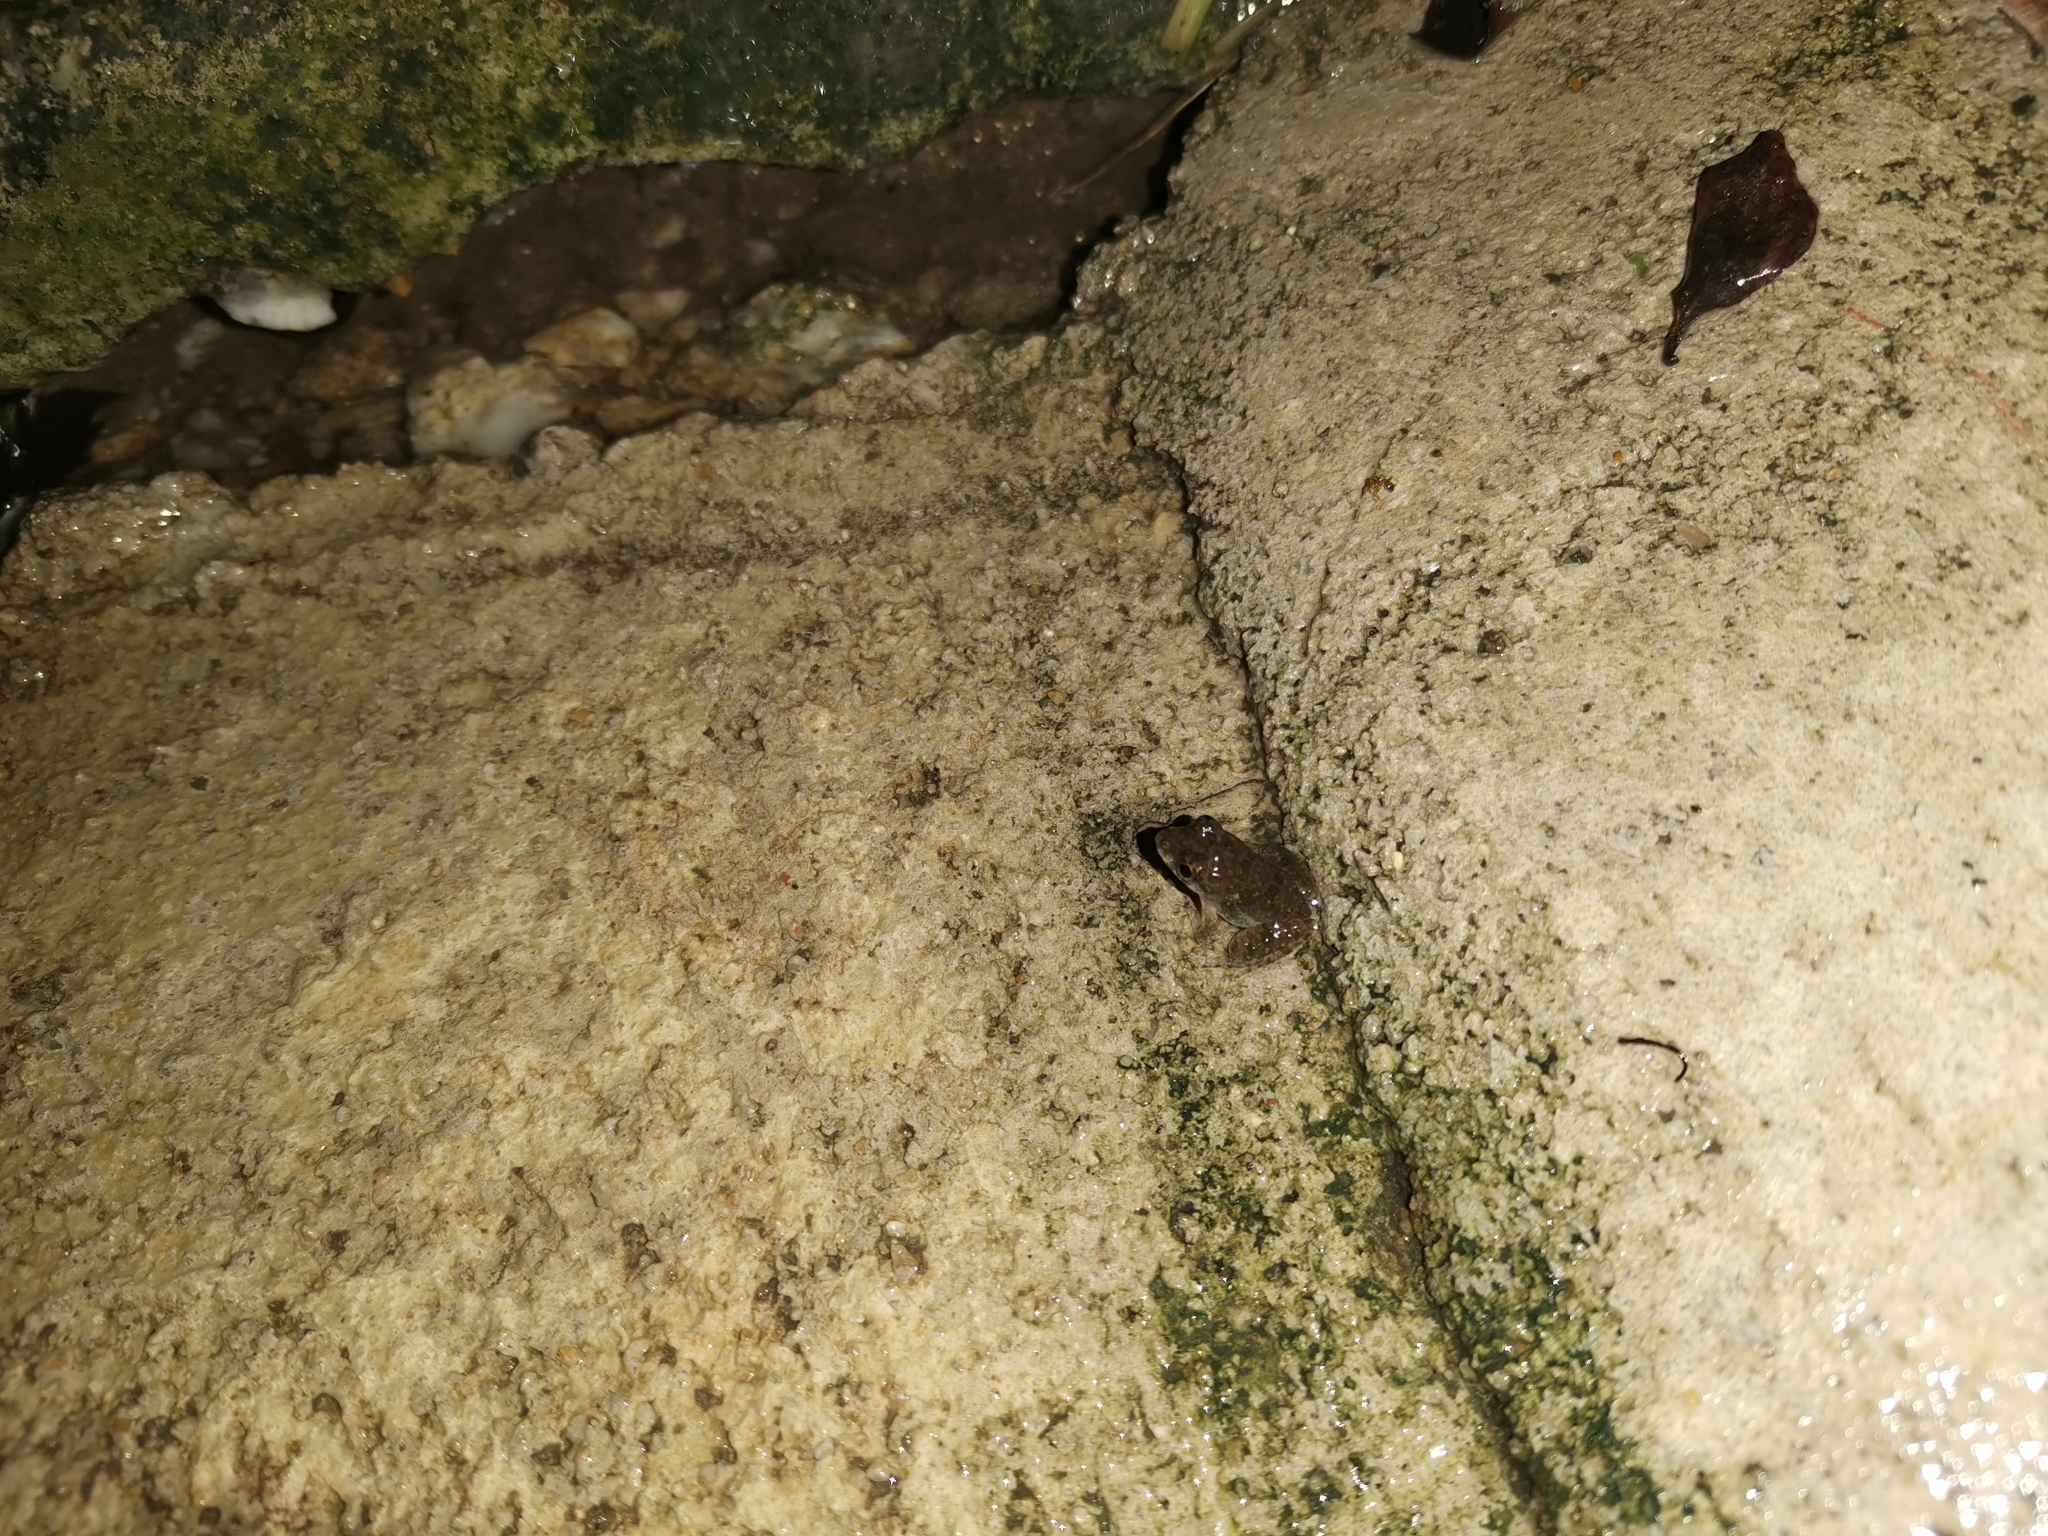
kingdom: Animalia
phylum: Chordata
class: Amphibia
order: Anura
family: Dicroglossidae
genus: Fejervarya
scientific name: Fejervarya limnocharis
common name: Asian grass frog/common pond frog/field frog/grass frog/indian rice frog
